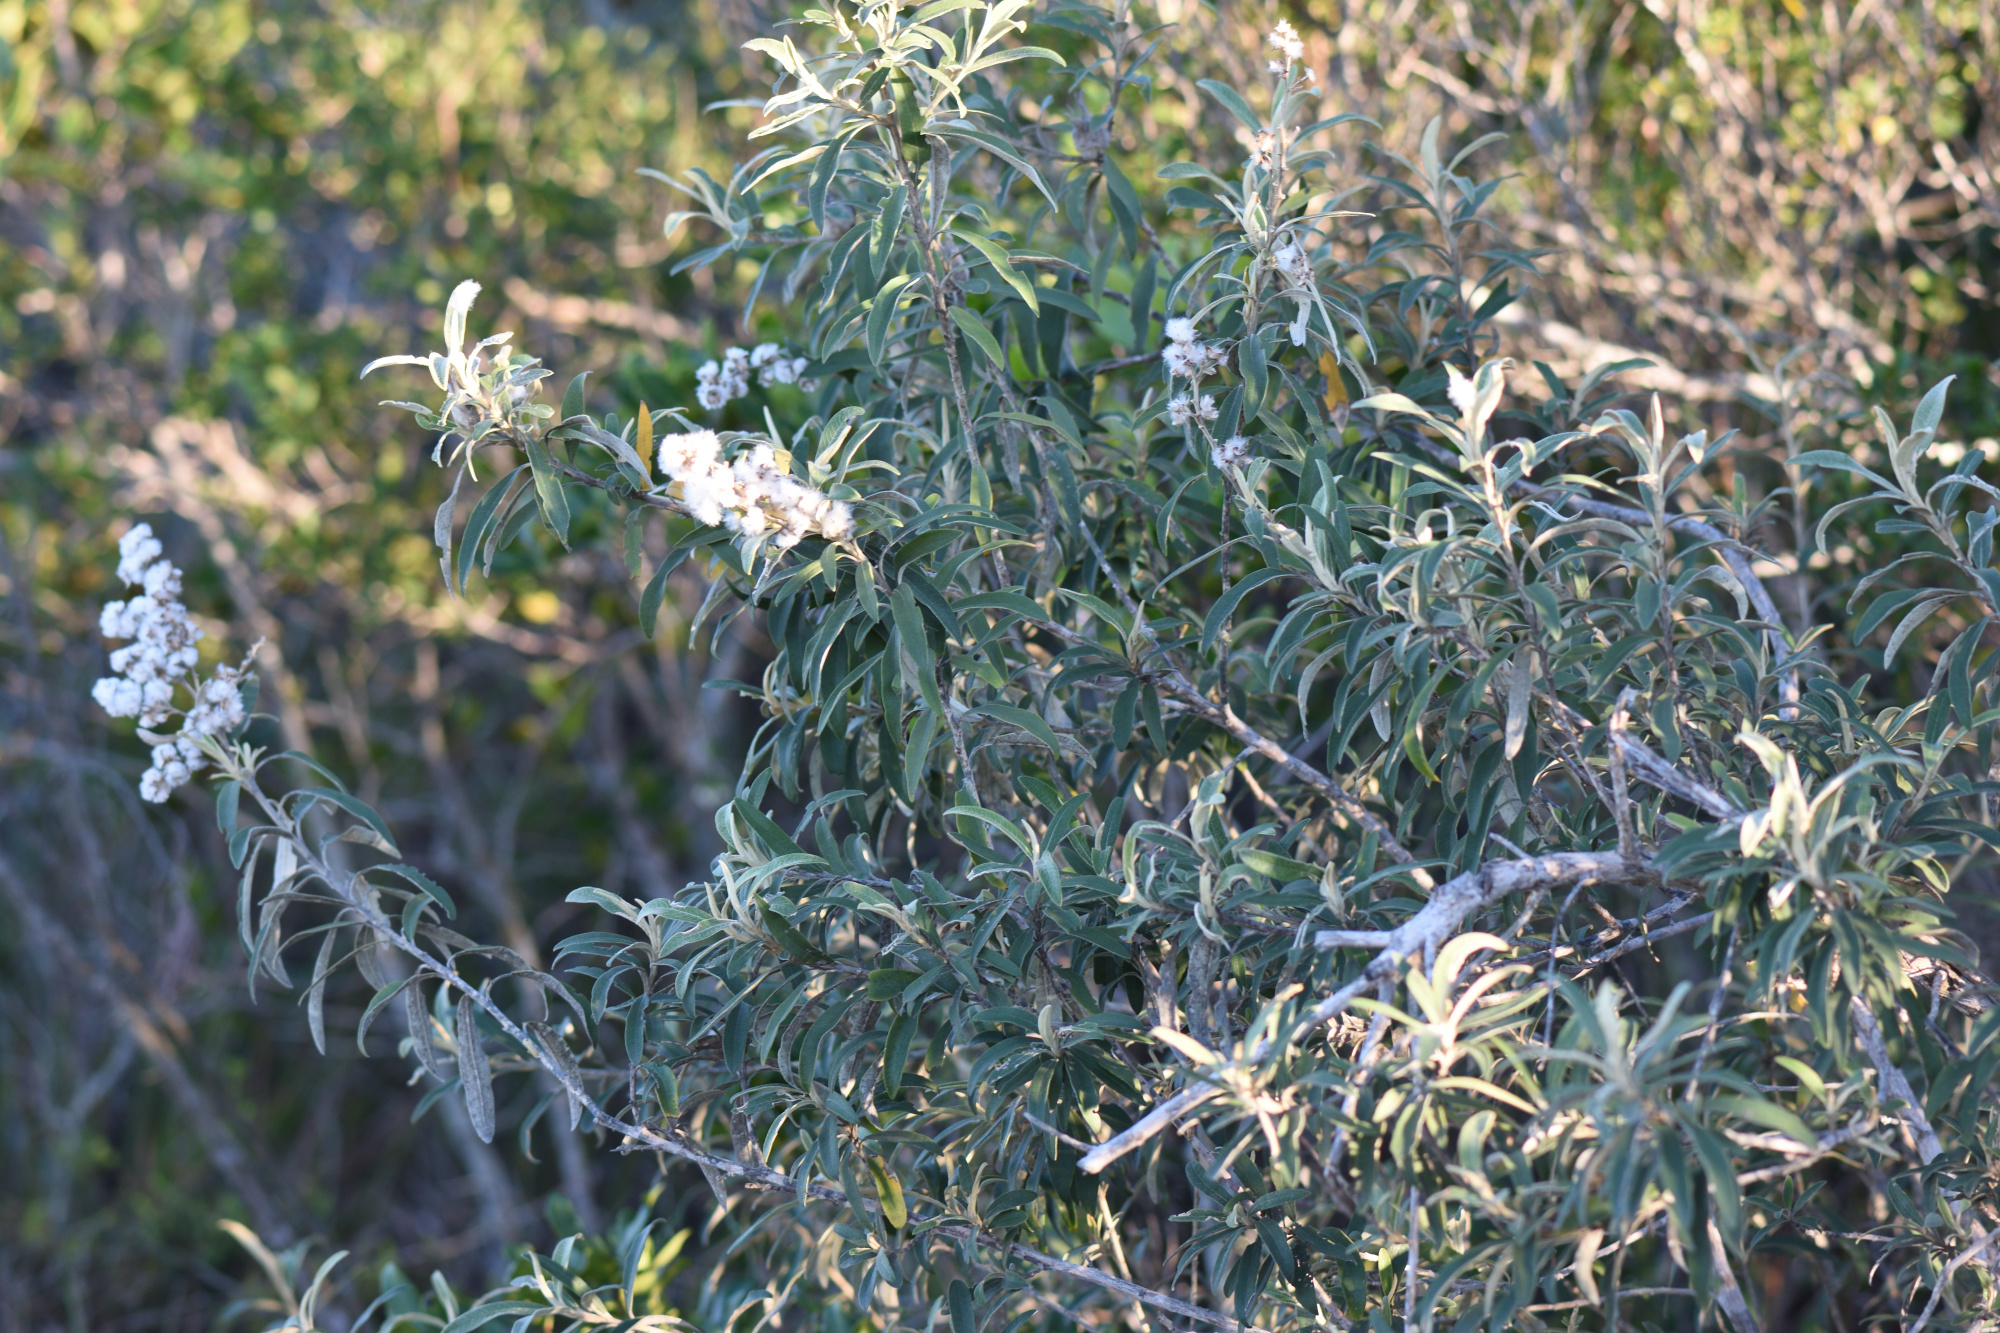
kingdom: Plantae
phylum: Tracheophyta
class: Magnoliopsida
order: Asterales
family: Asteraceae
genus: Tarchonanthus
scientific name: Tarchonanthus littoralis
